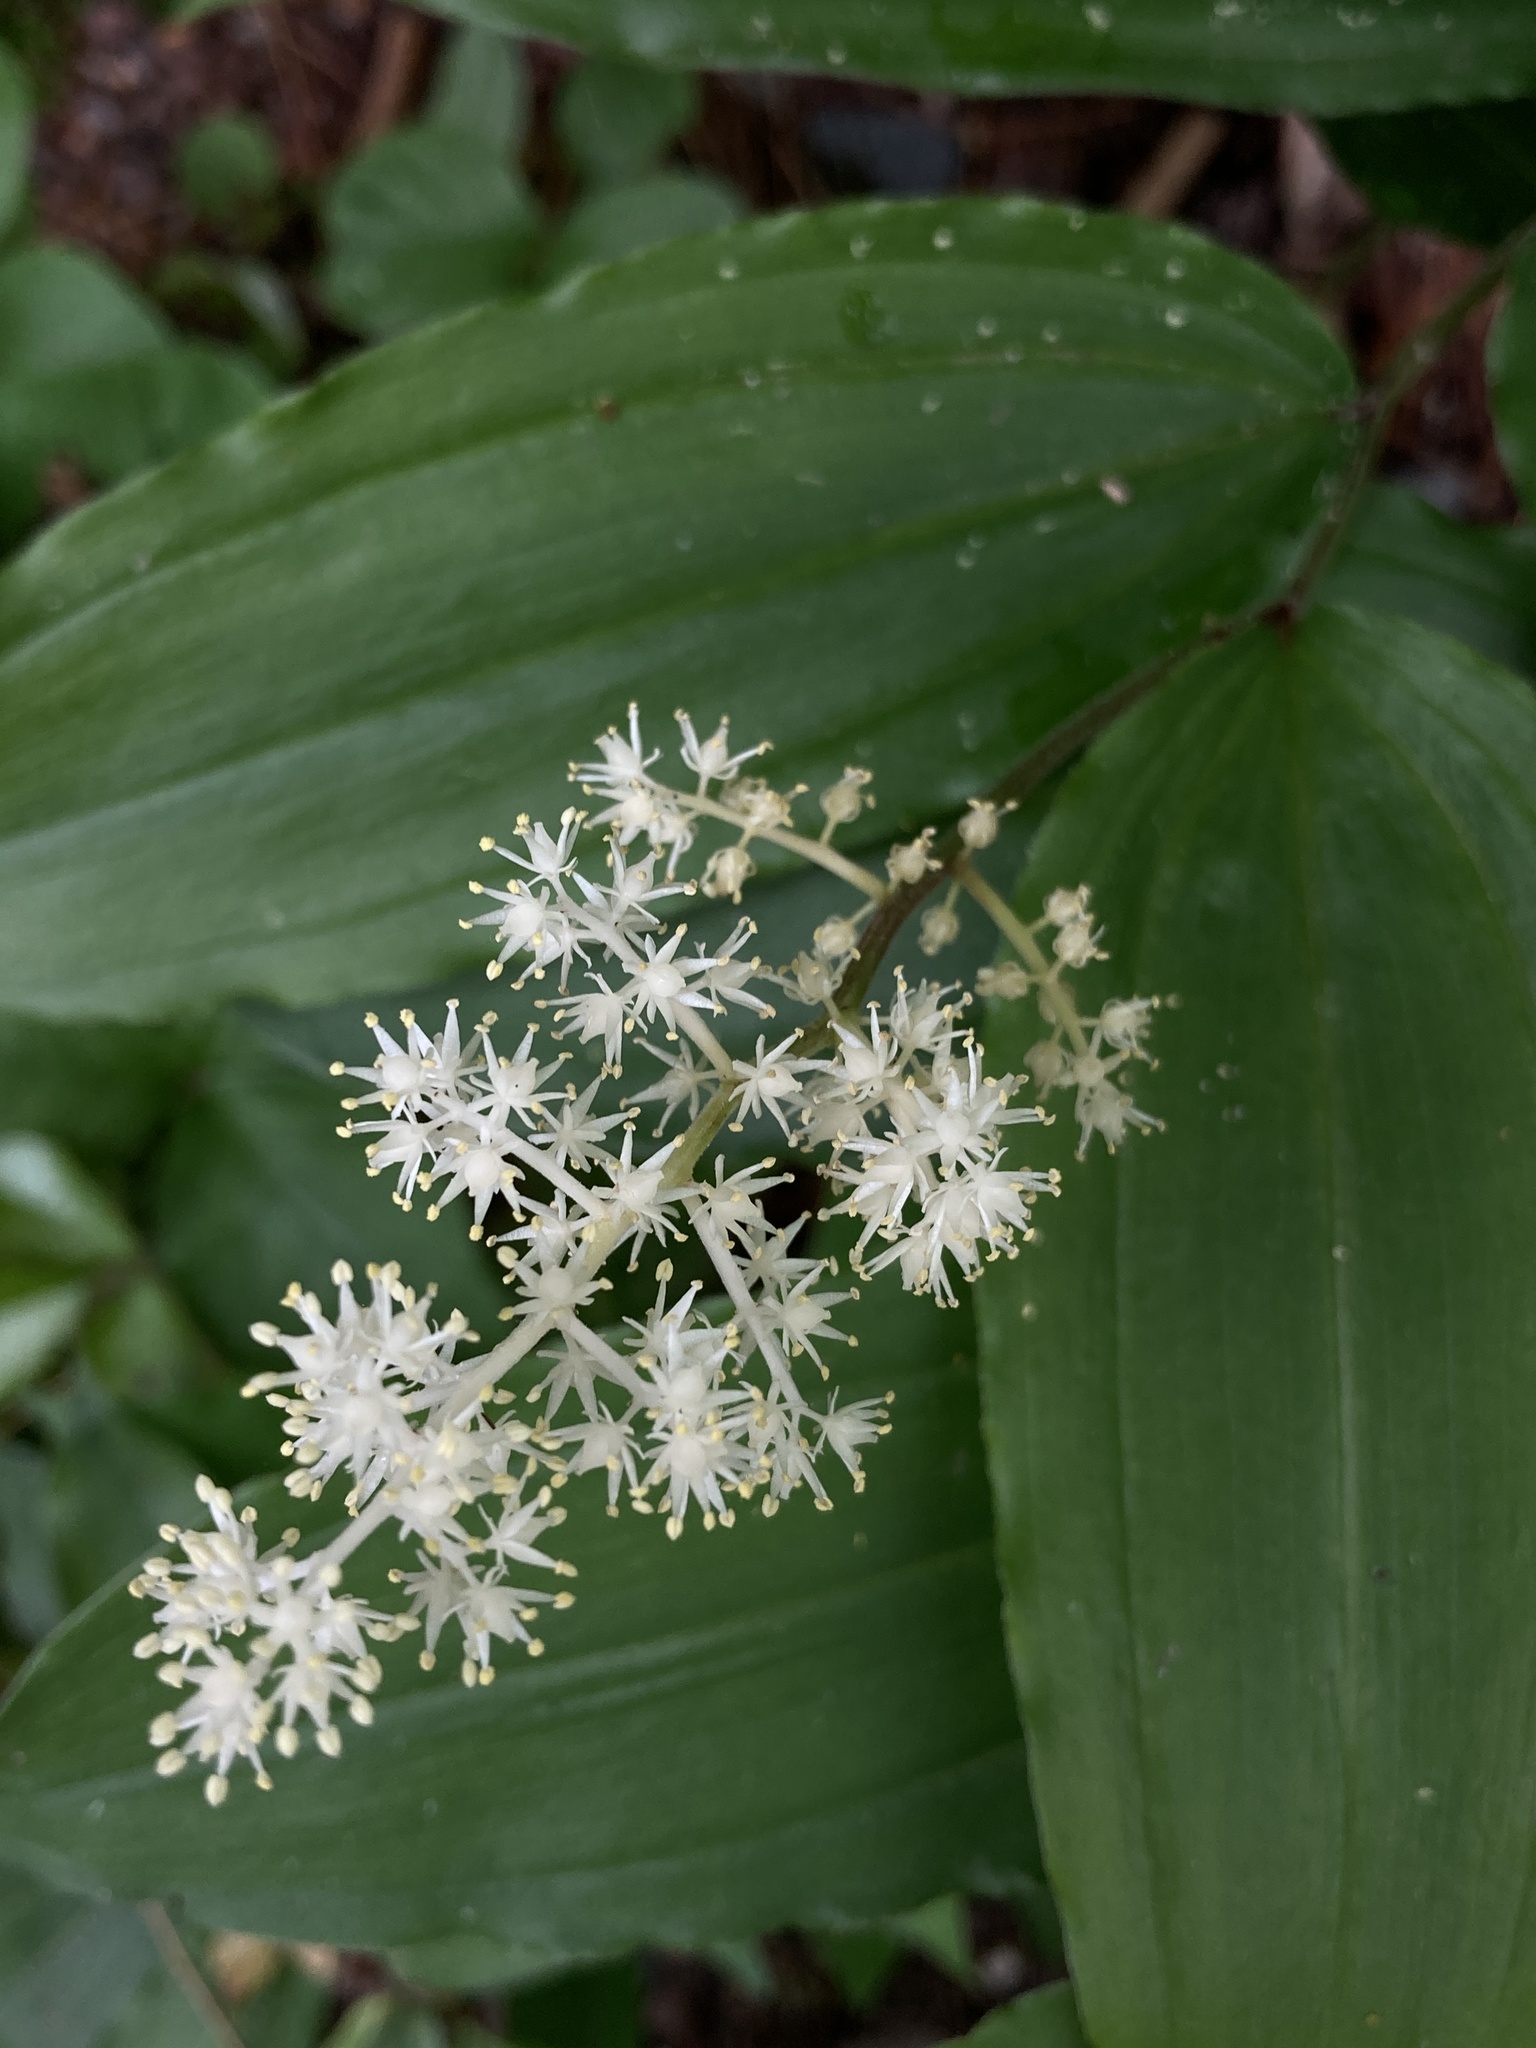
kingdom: Plantae
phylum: Tracheophyta
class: Liliopsida
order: Asparagales
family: Asparagaceae
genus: Maianthemum
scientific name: Maianthemum racemosum
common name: False spikenard
